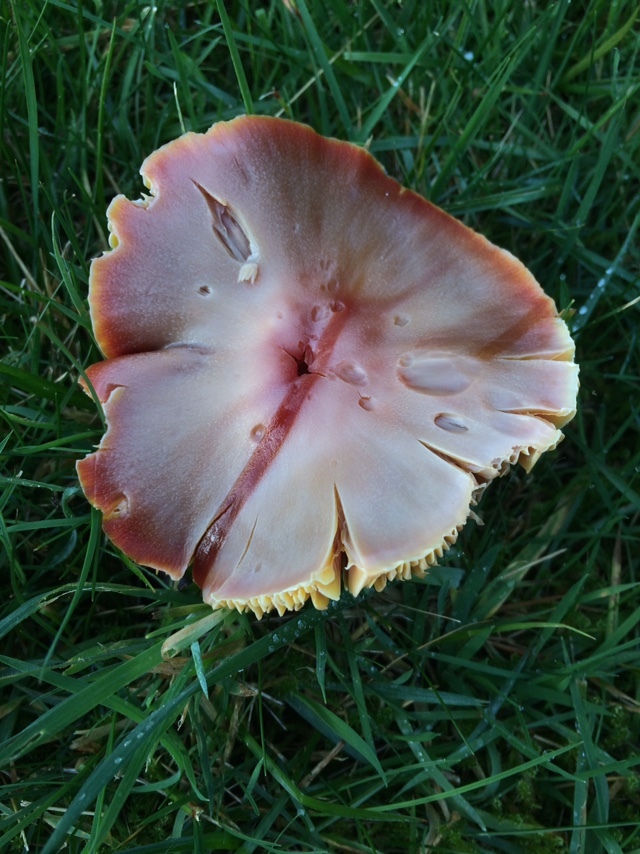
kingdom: Fungi
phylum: Basidiomycota
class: Agaricomycetes
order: Agaricales
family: Hygrophoraceae
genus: Hygrocybe
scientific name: Hygrocybe punicea
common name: Crimson waxcap
